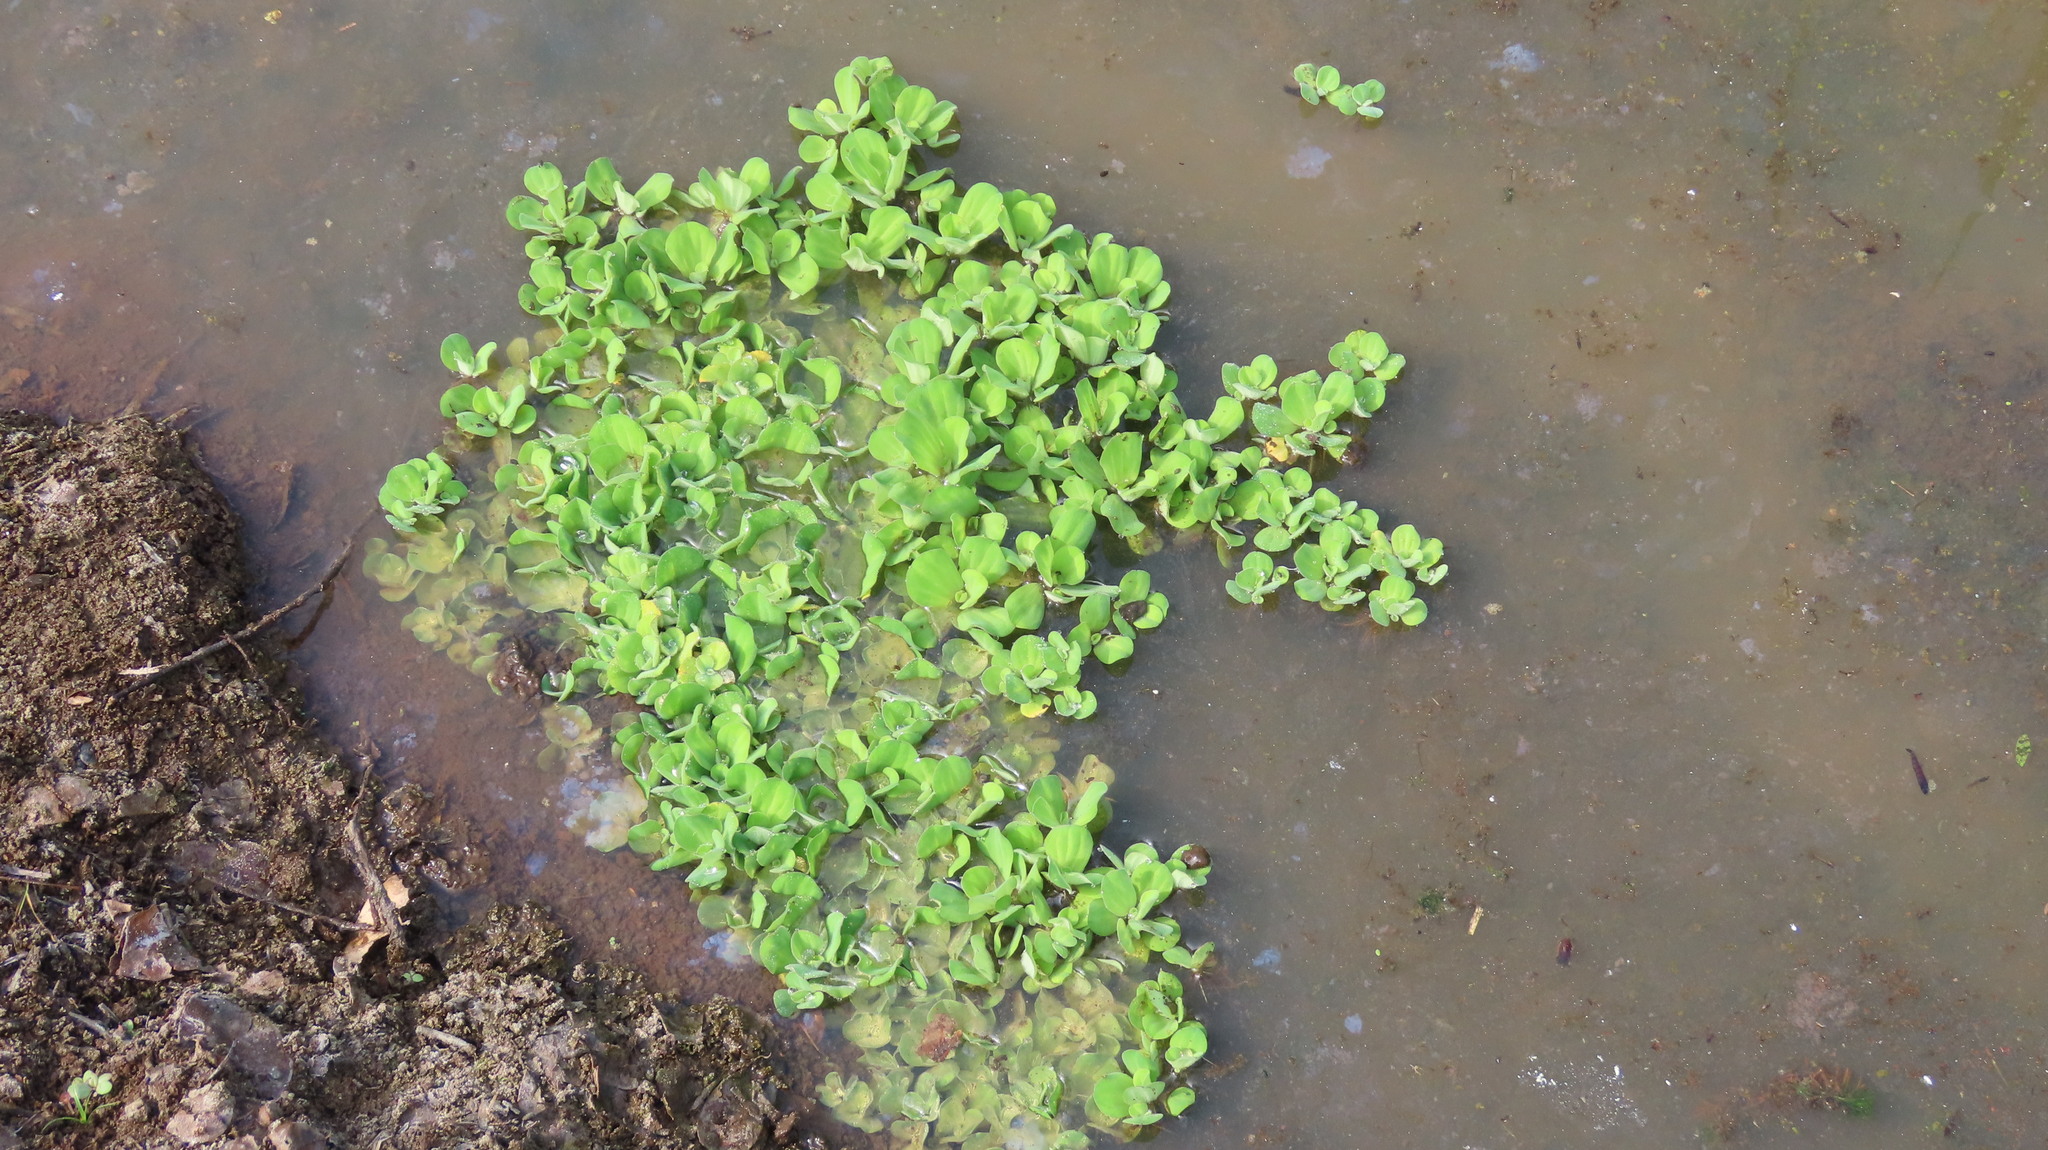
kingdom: Plantae
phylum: Tracheophyta
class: Liliopsida
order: Alismatales
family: Araceae
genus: Pistia
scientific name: Pistia stratiotes
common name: Water lettuce
